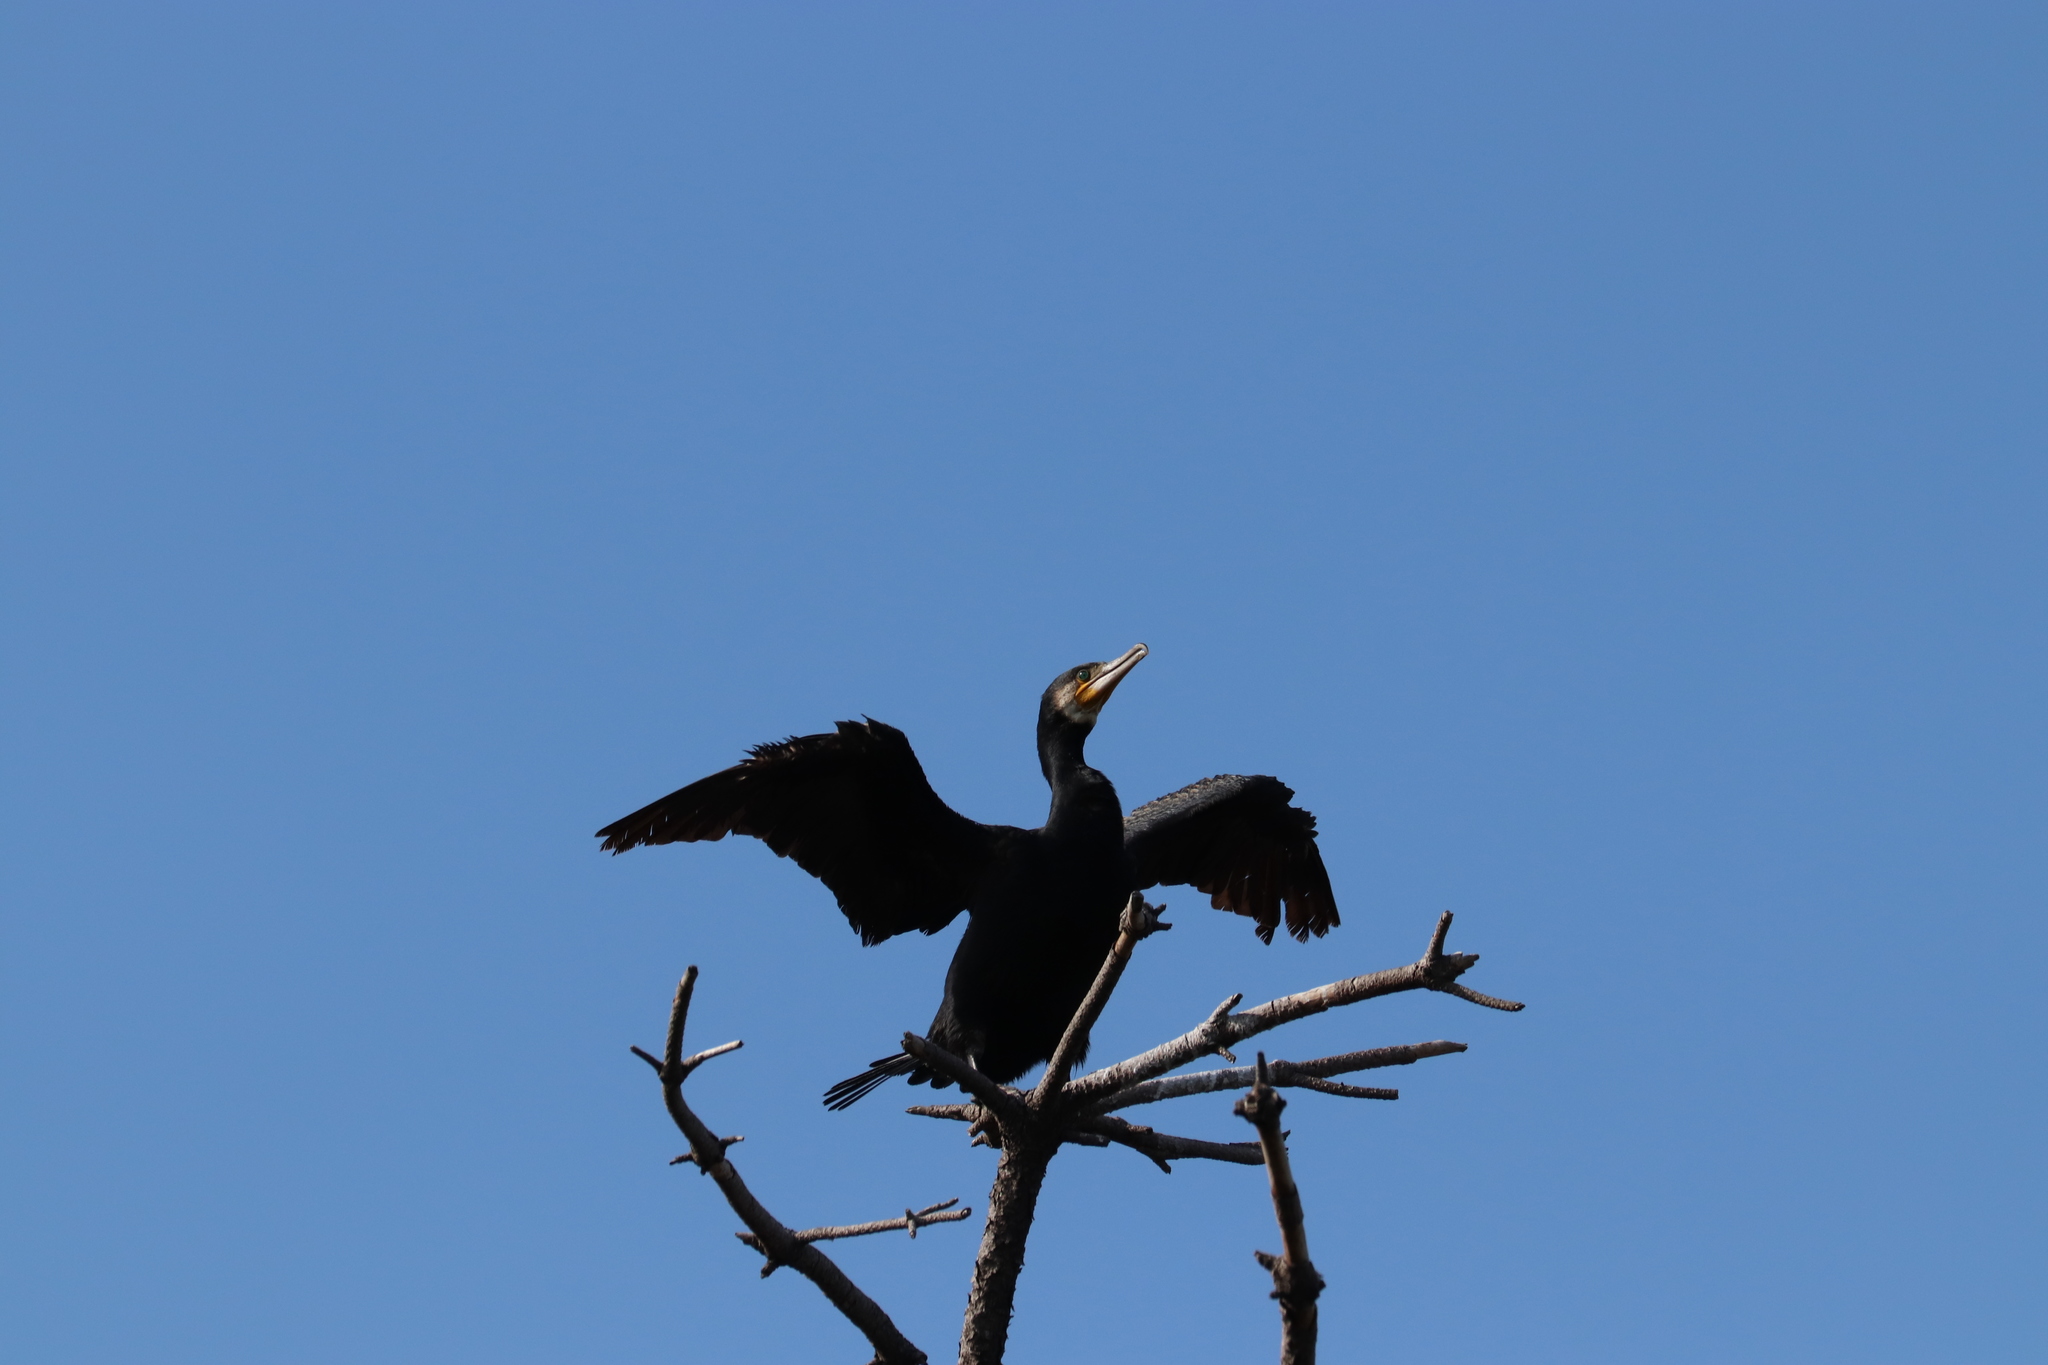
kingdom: Animalia
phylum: Chordata
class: Aves
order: Suliformes
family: Phalacrocoracidae
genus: Phalacrocorax
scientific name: Phalacrocorax carbo
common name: Great cormorant
